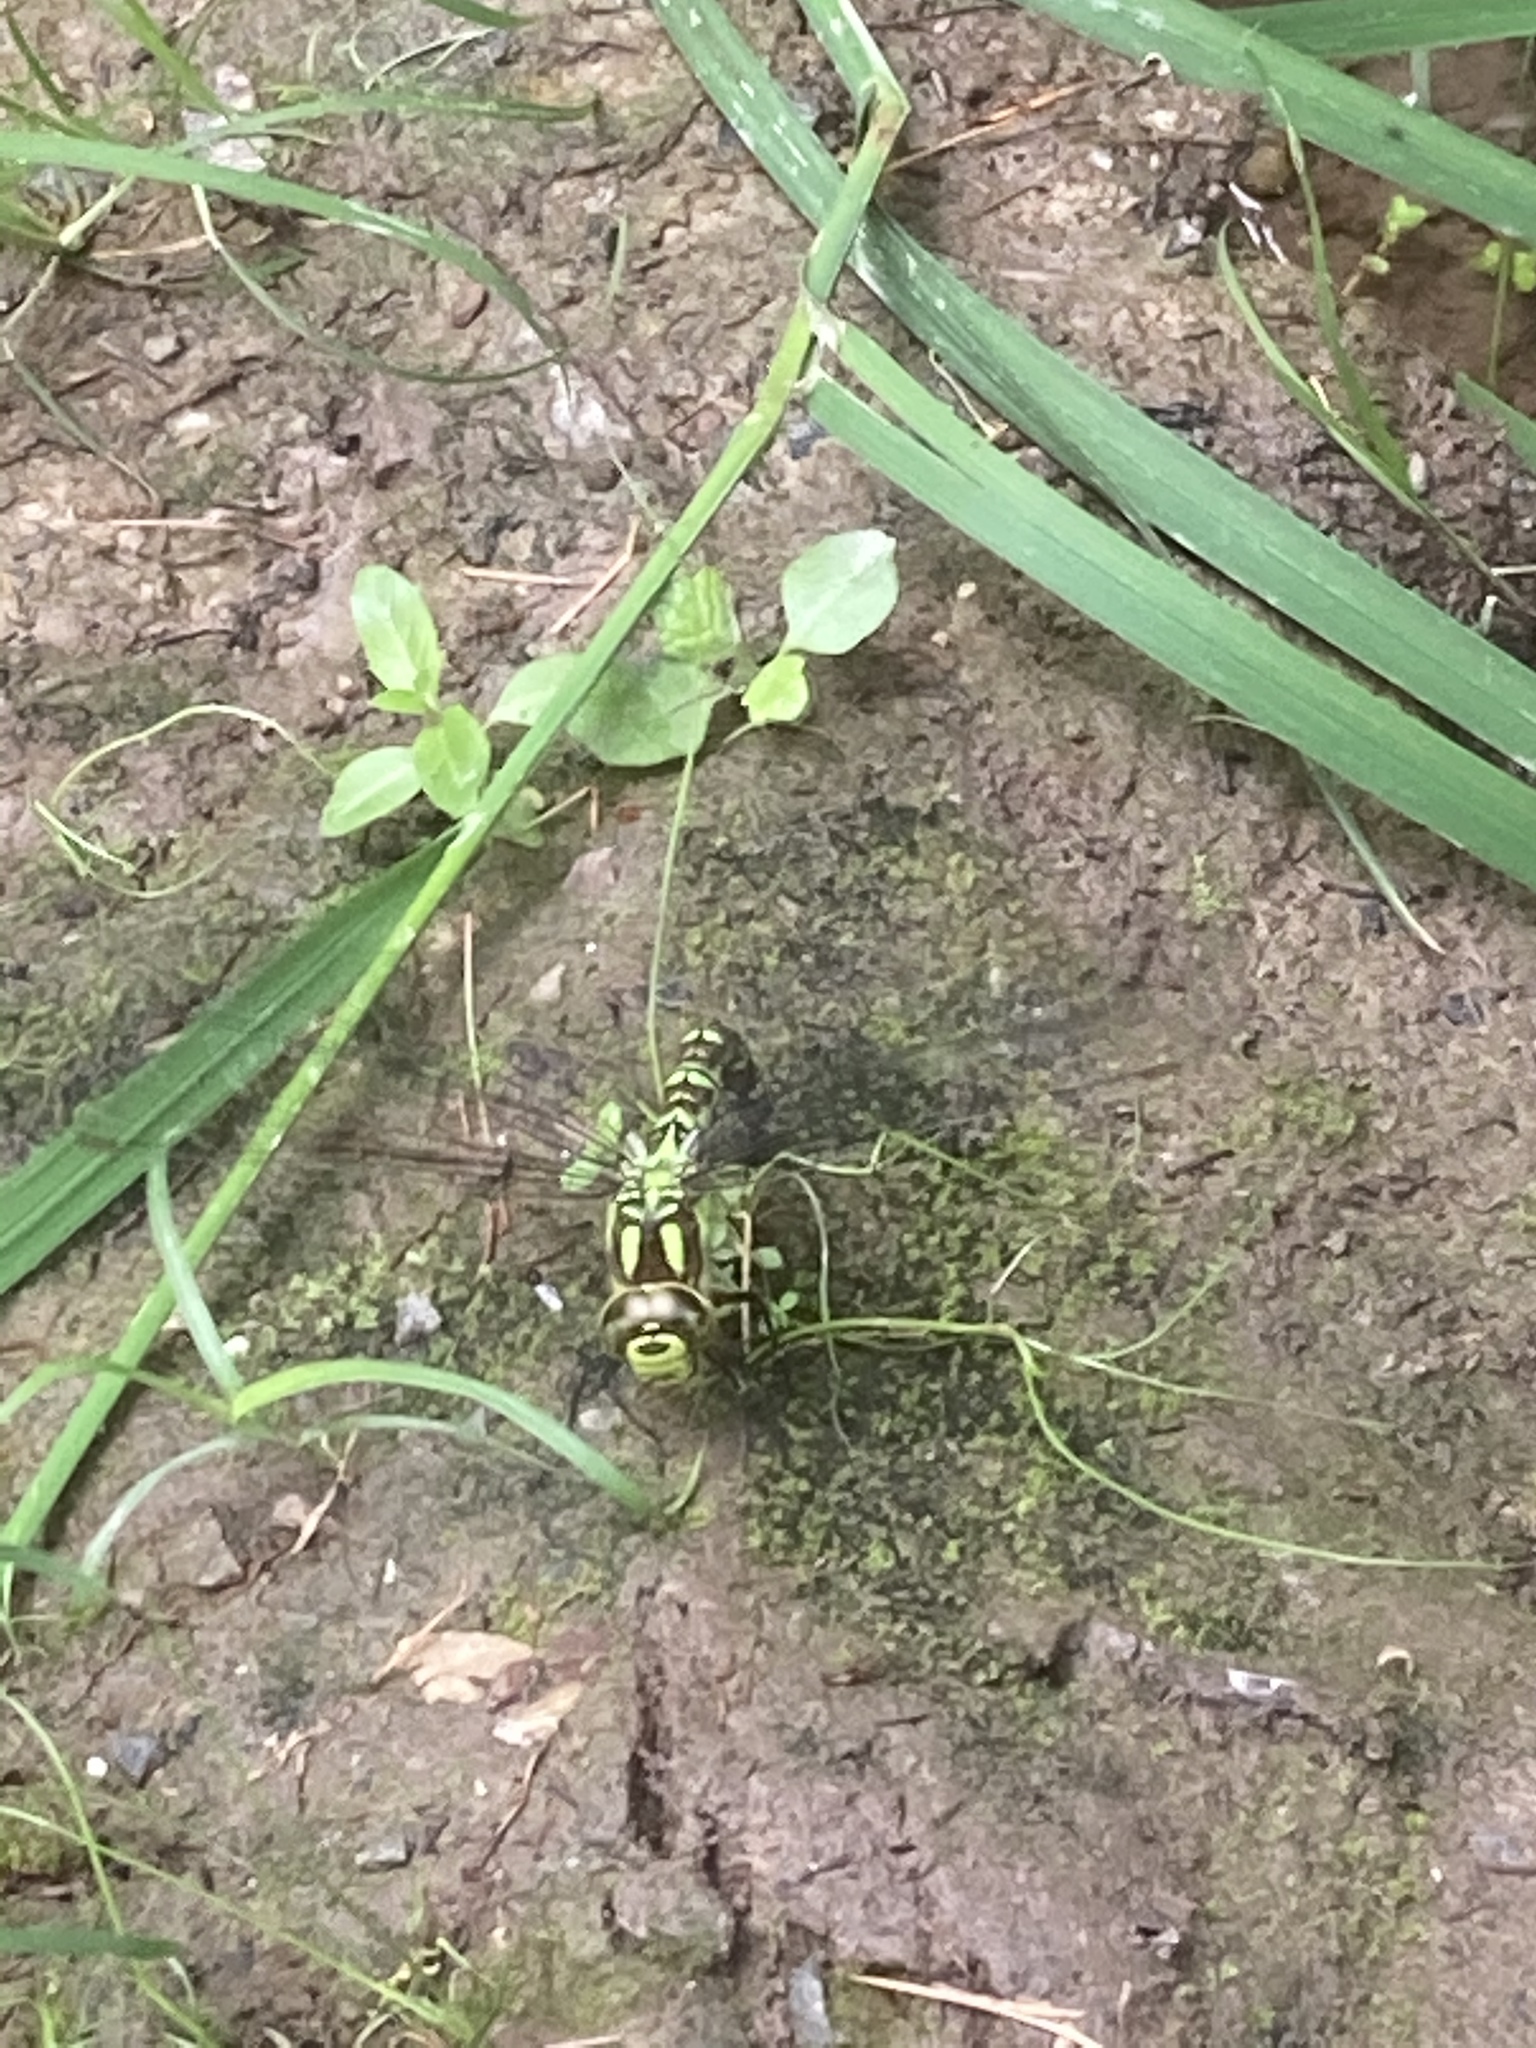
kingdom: Animalia
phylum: Arthropoda
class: Insecta
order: Odonata
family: Aeshnidae
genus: Aeshna
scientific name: Aeshna cyanea
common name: Southern hawker
